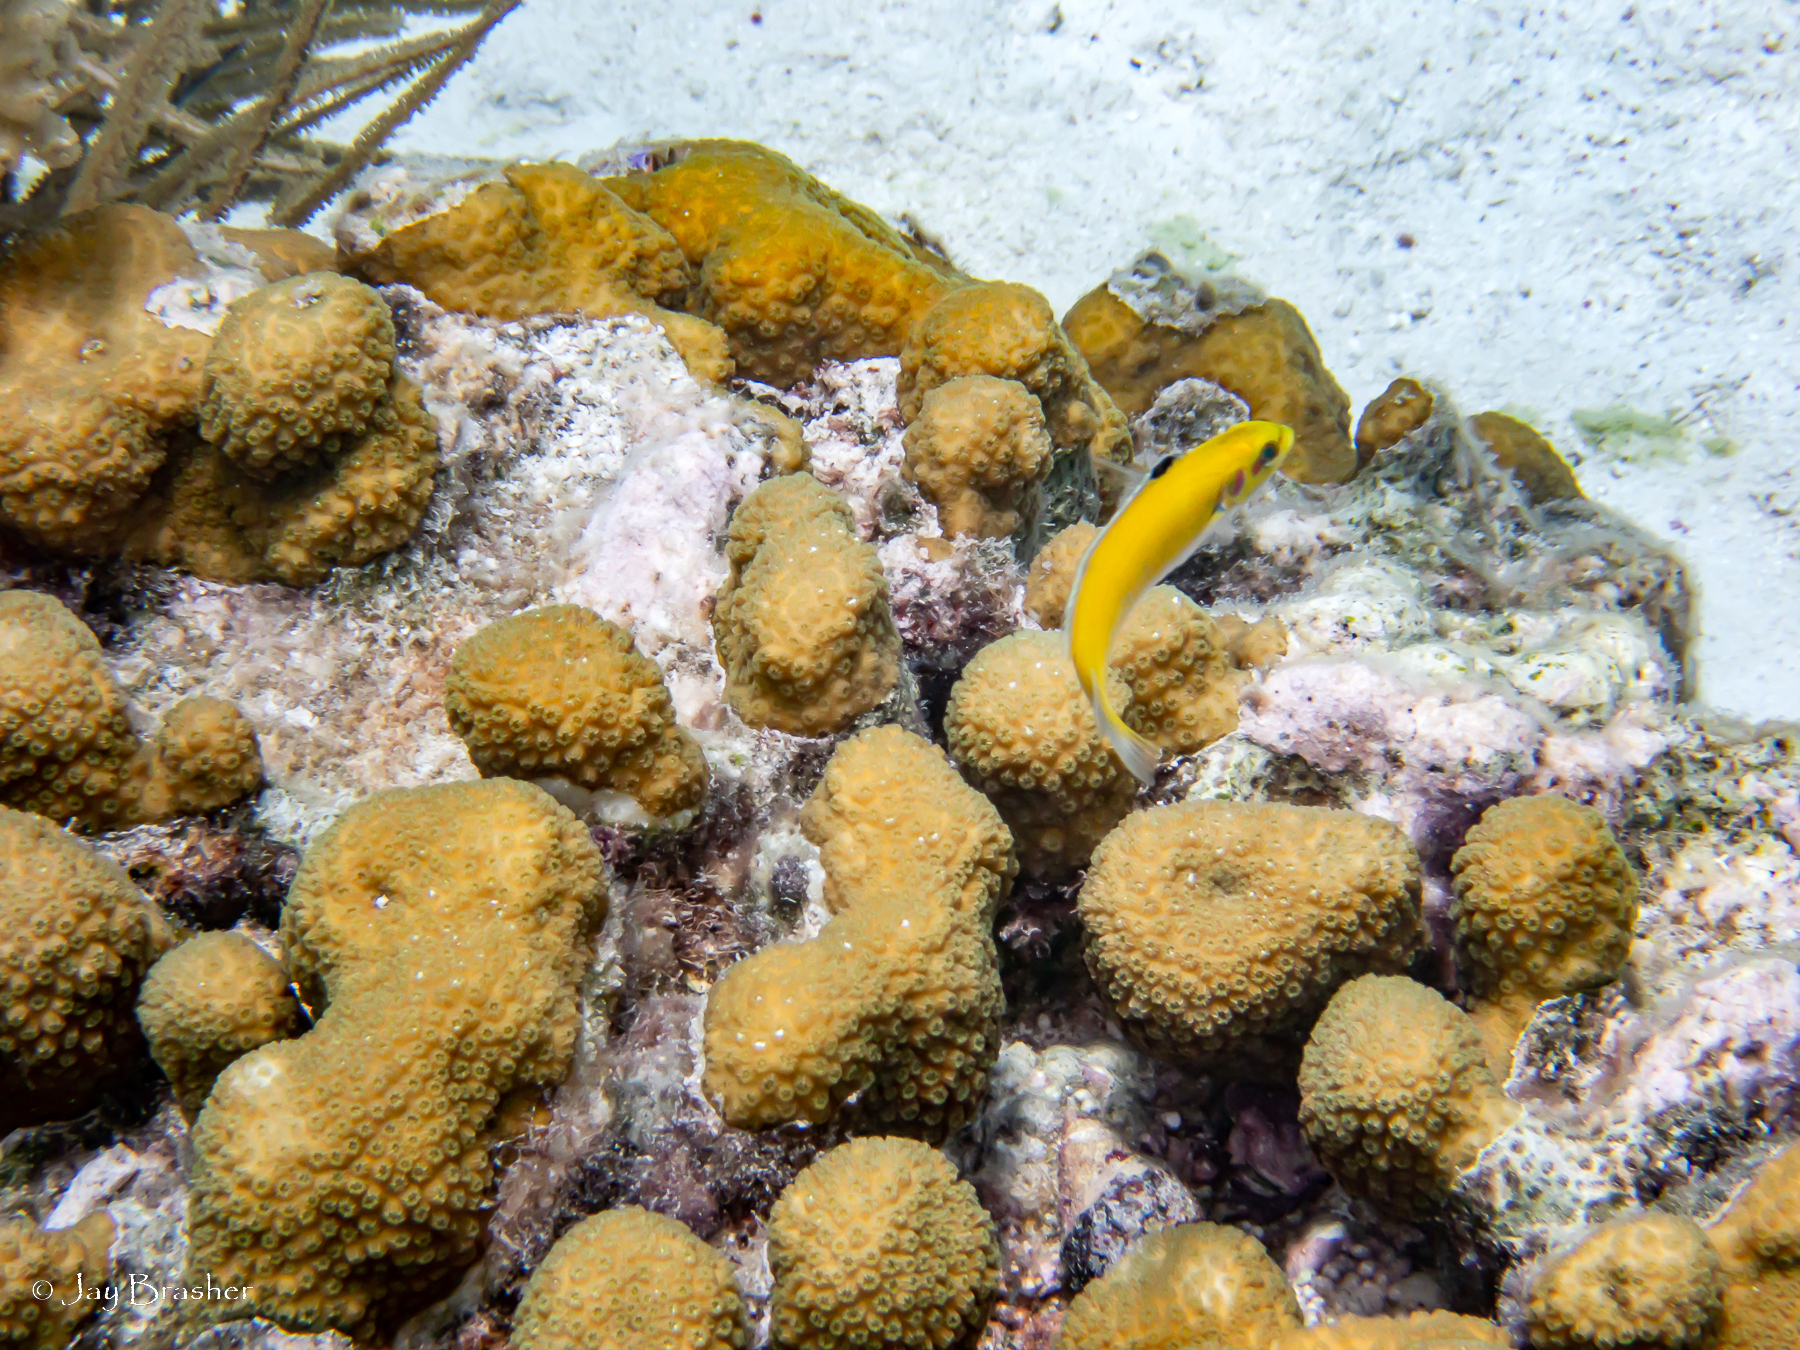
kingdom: Animalia
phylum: Chordata
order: Perciformes
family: Labridae
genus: Thalassoma
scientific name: Thalassoma bifasciatum
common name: Bluehead wrasse
